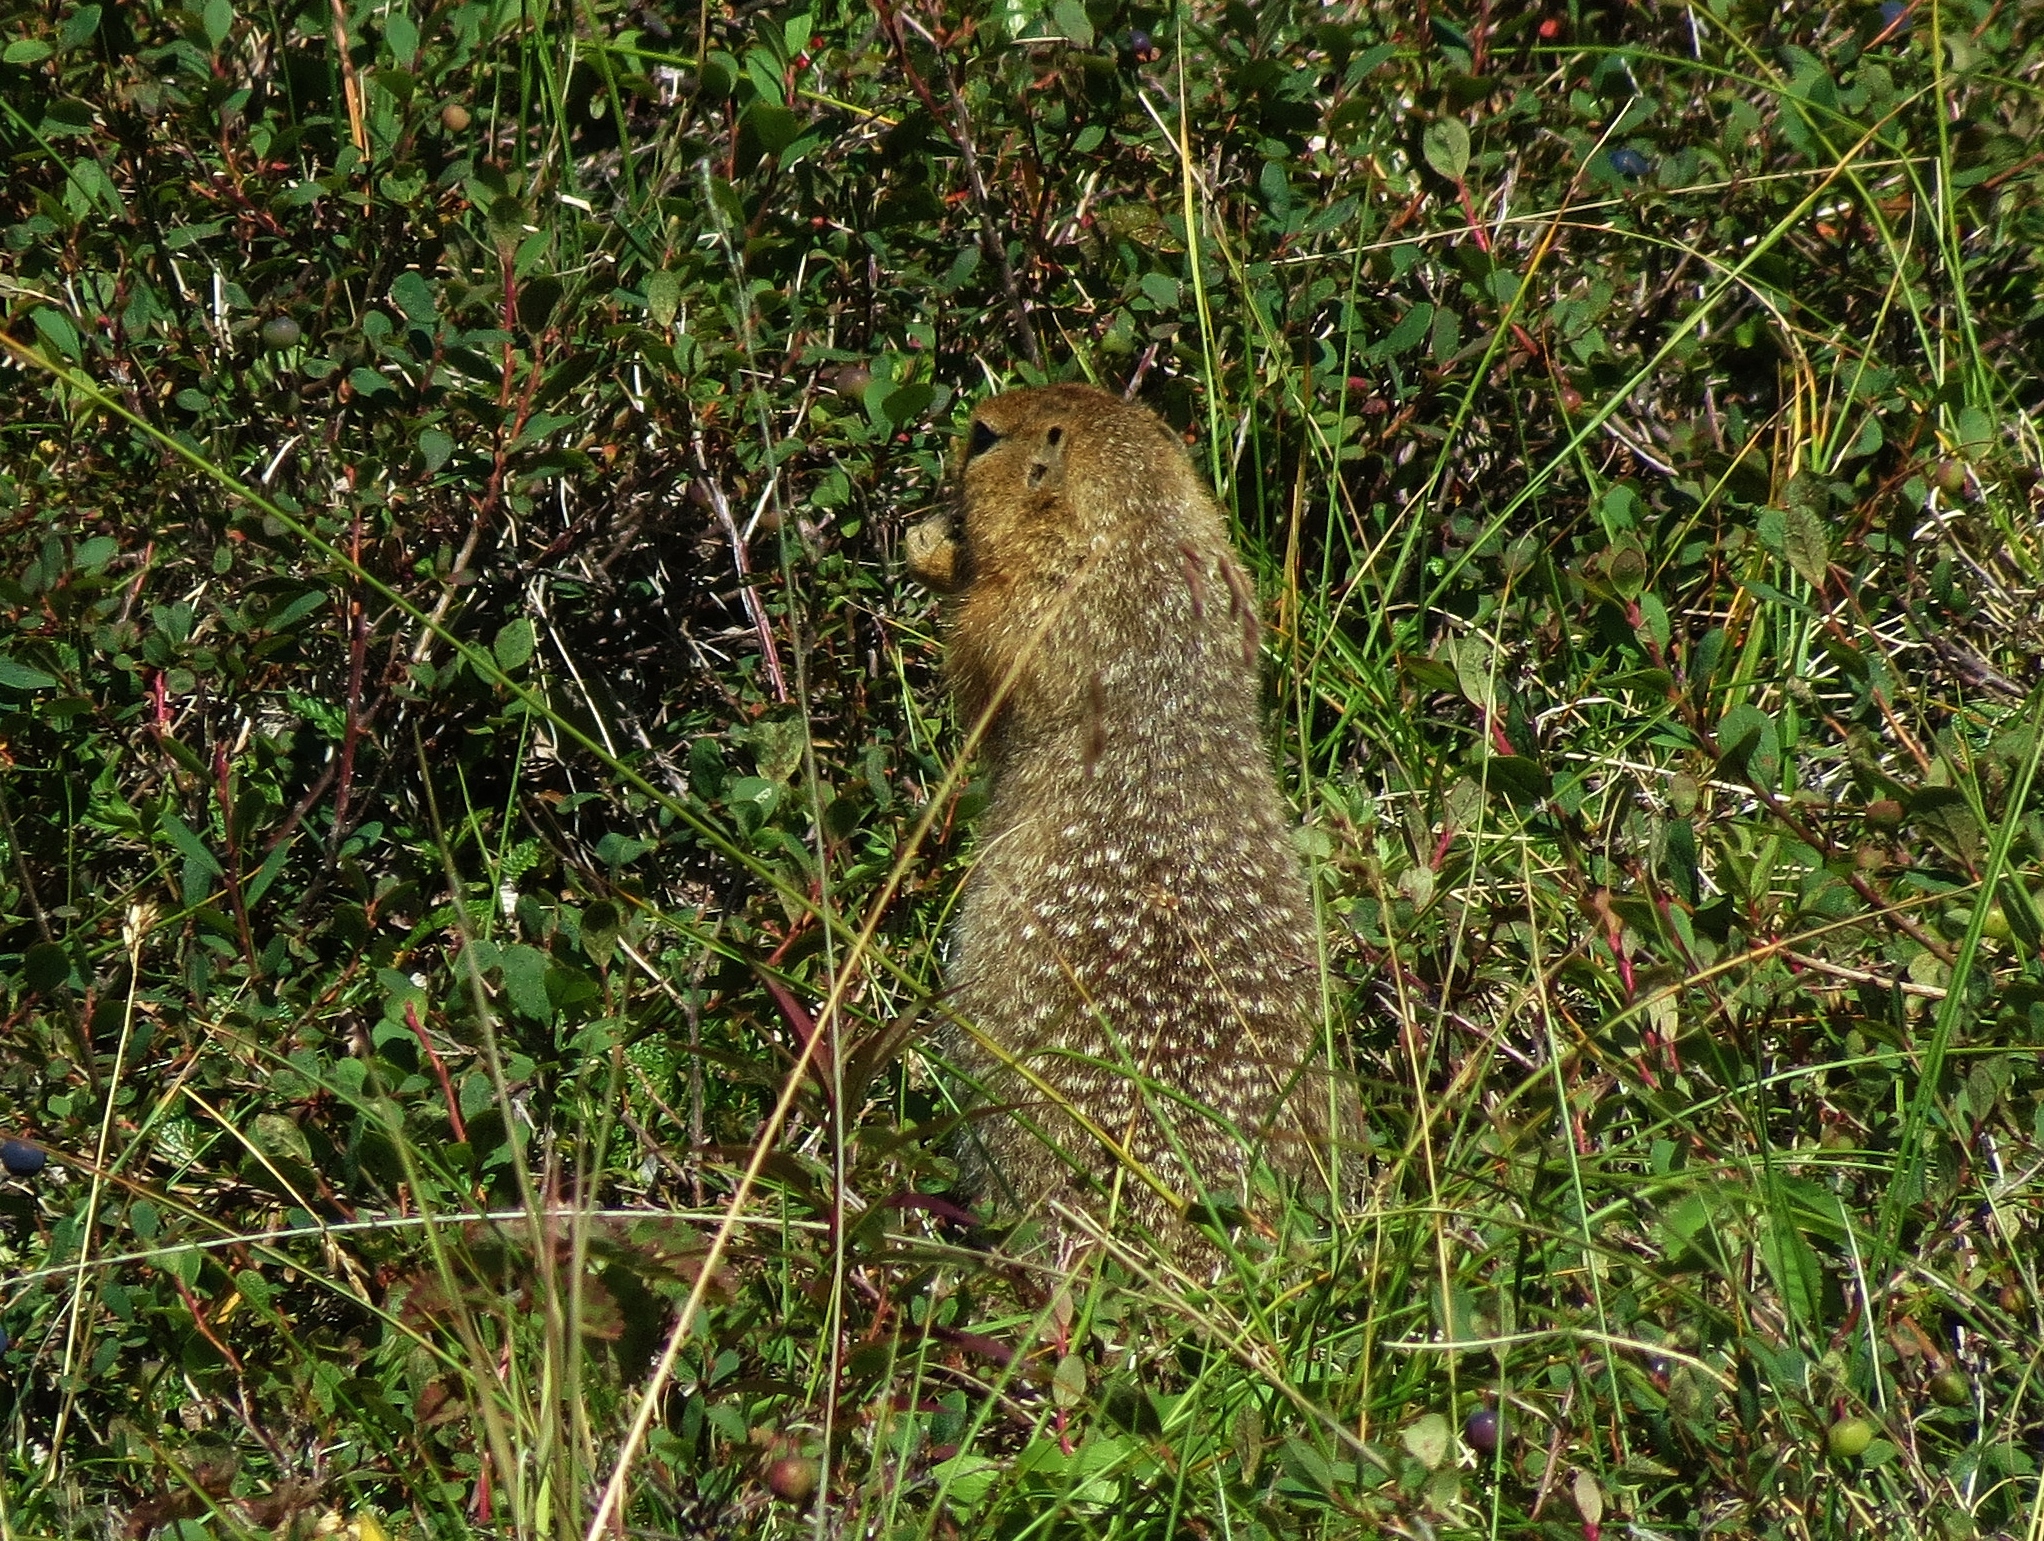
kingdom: Animalia
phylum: Chordata
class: Mammalia
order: Rodentia
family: Sciuridae
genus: Urocitellus
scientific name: Urocitellus parryii
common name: Arctic ground squirrel
